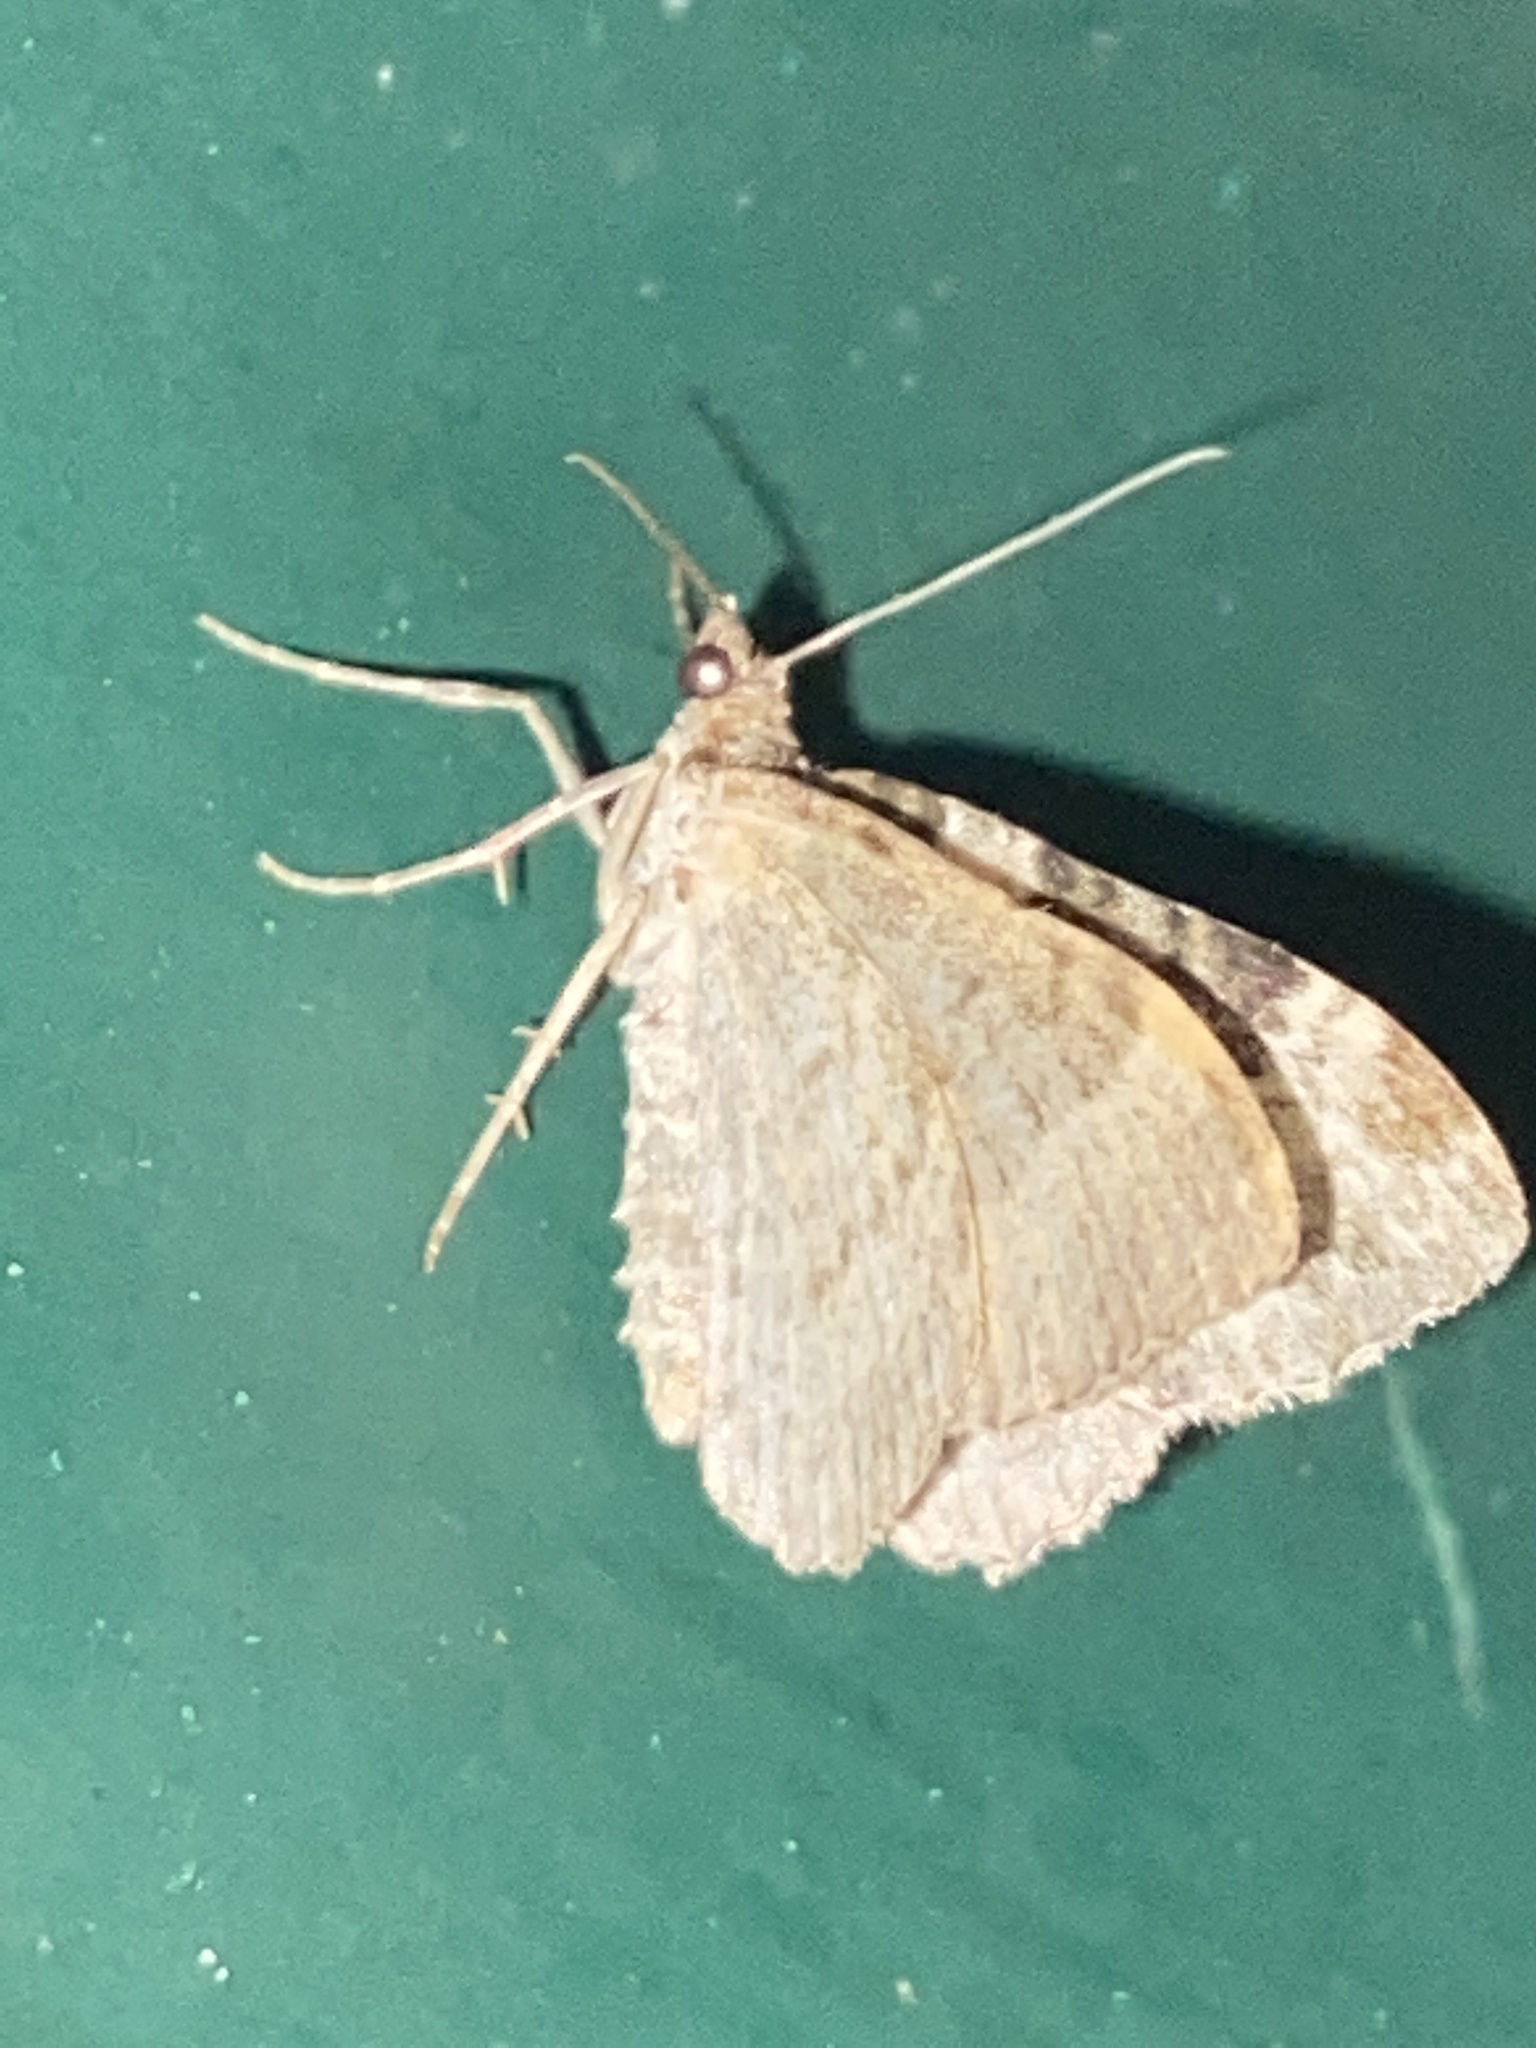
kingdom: Animalia
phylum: Arthropoda
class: Insecta
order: Lepidoptera
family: Geometridae
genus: Xanthorhoe
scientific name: Xanthorhoe ferrugata
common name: Dark-barred twin-spot carpet
